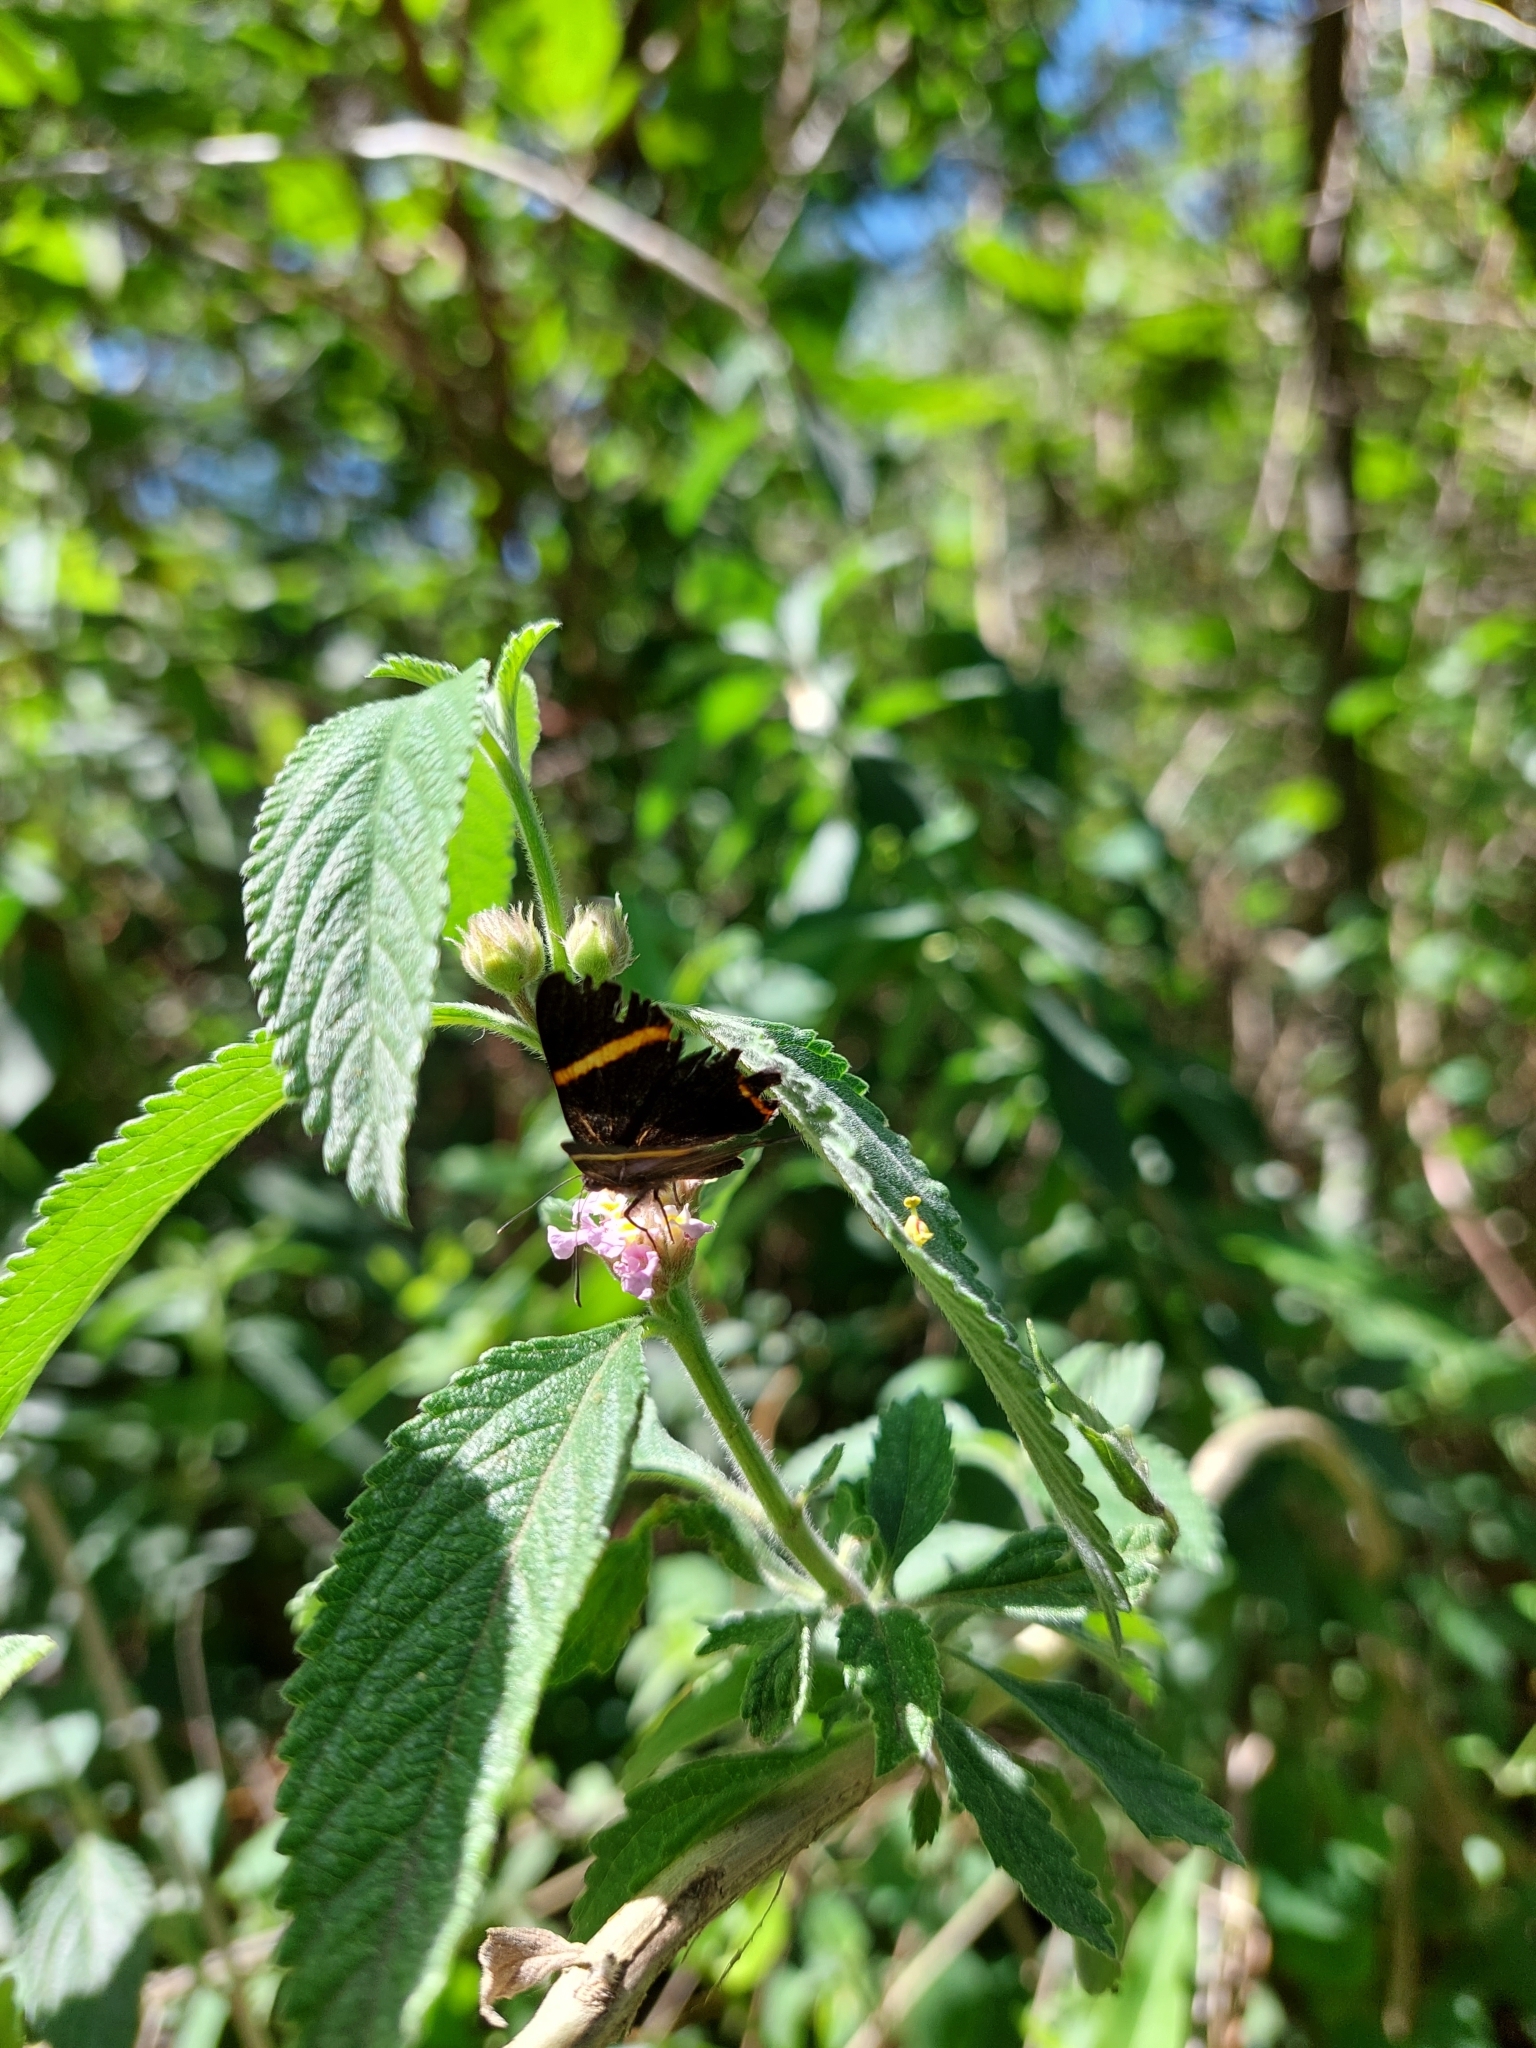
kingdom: Animalia
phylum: Arthropoda
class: Insecta
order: Lepidoptera
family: Riodinidae
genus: Riodina
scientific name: Riodina lysippoides
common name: Little dancer metalmark
